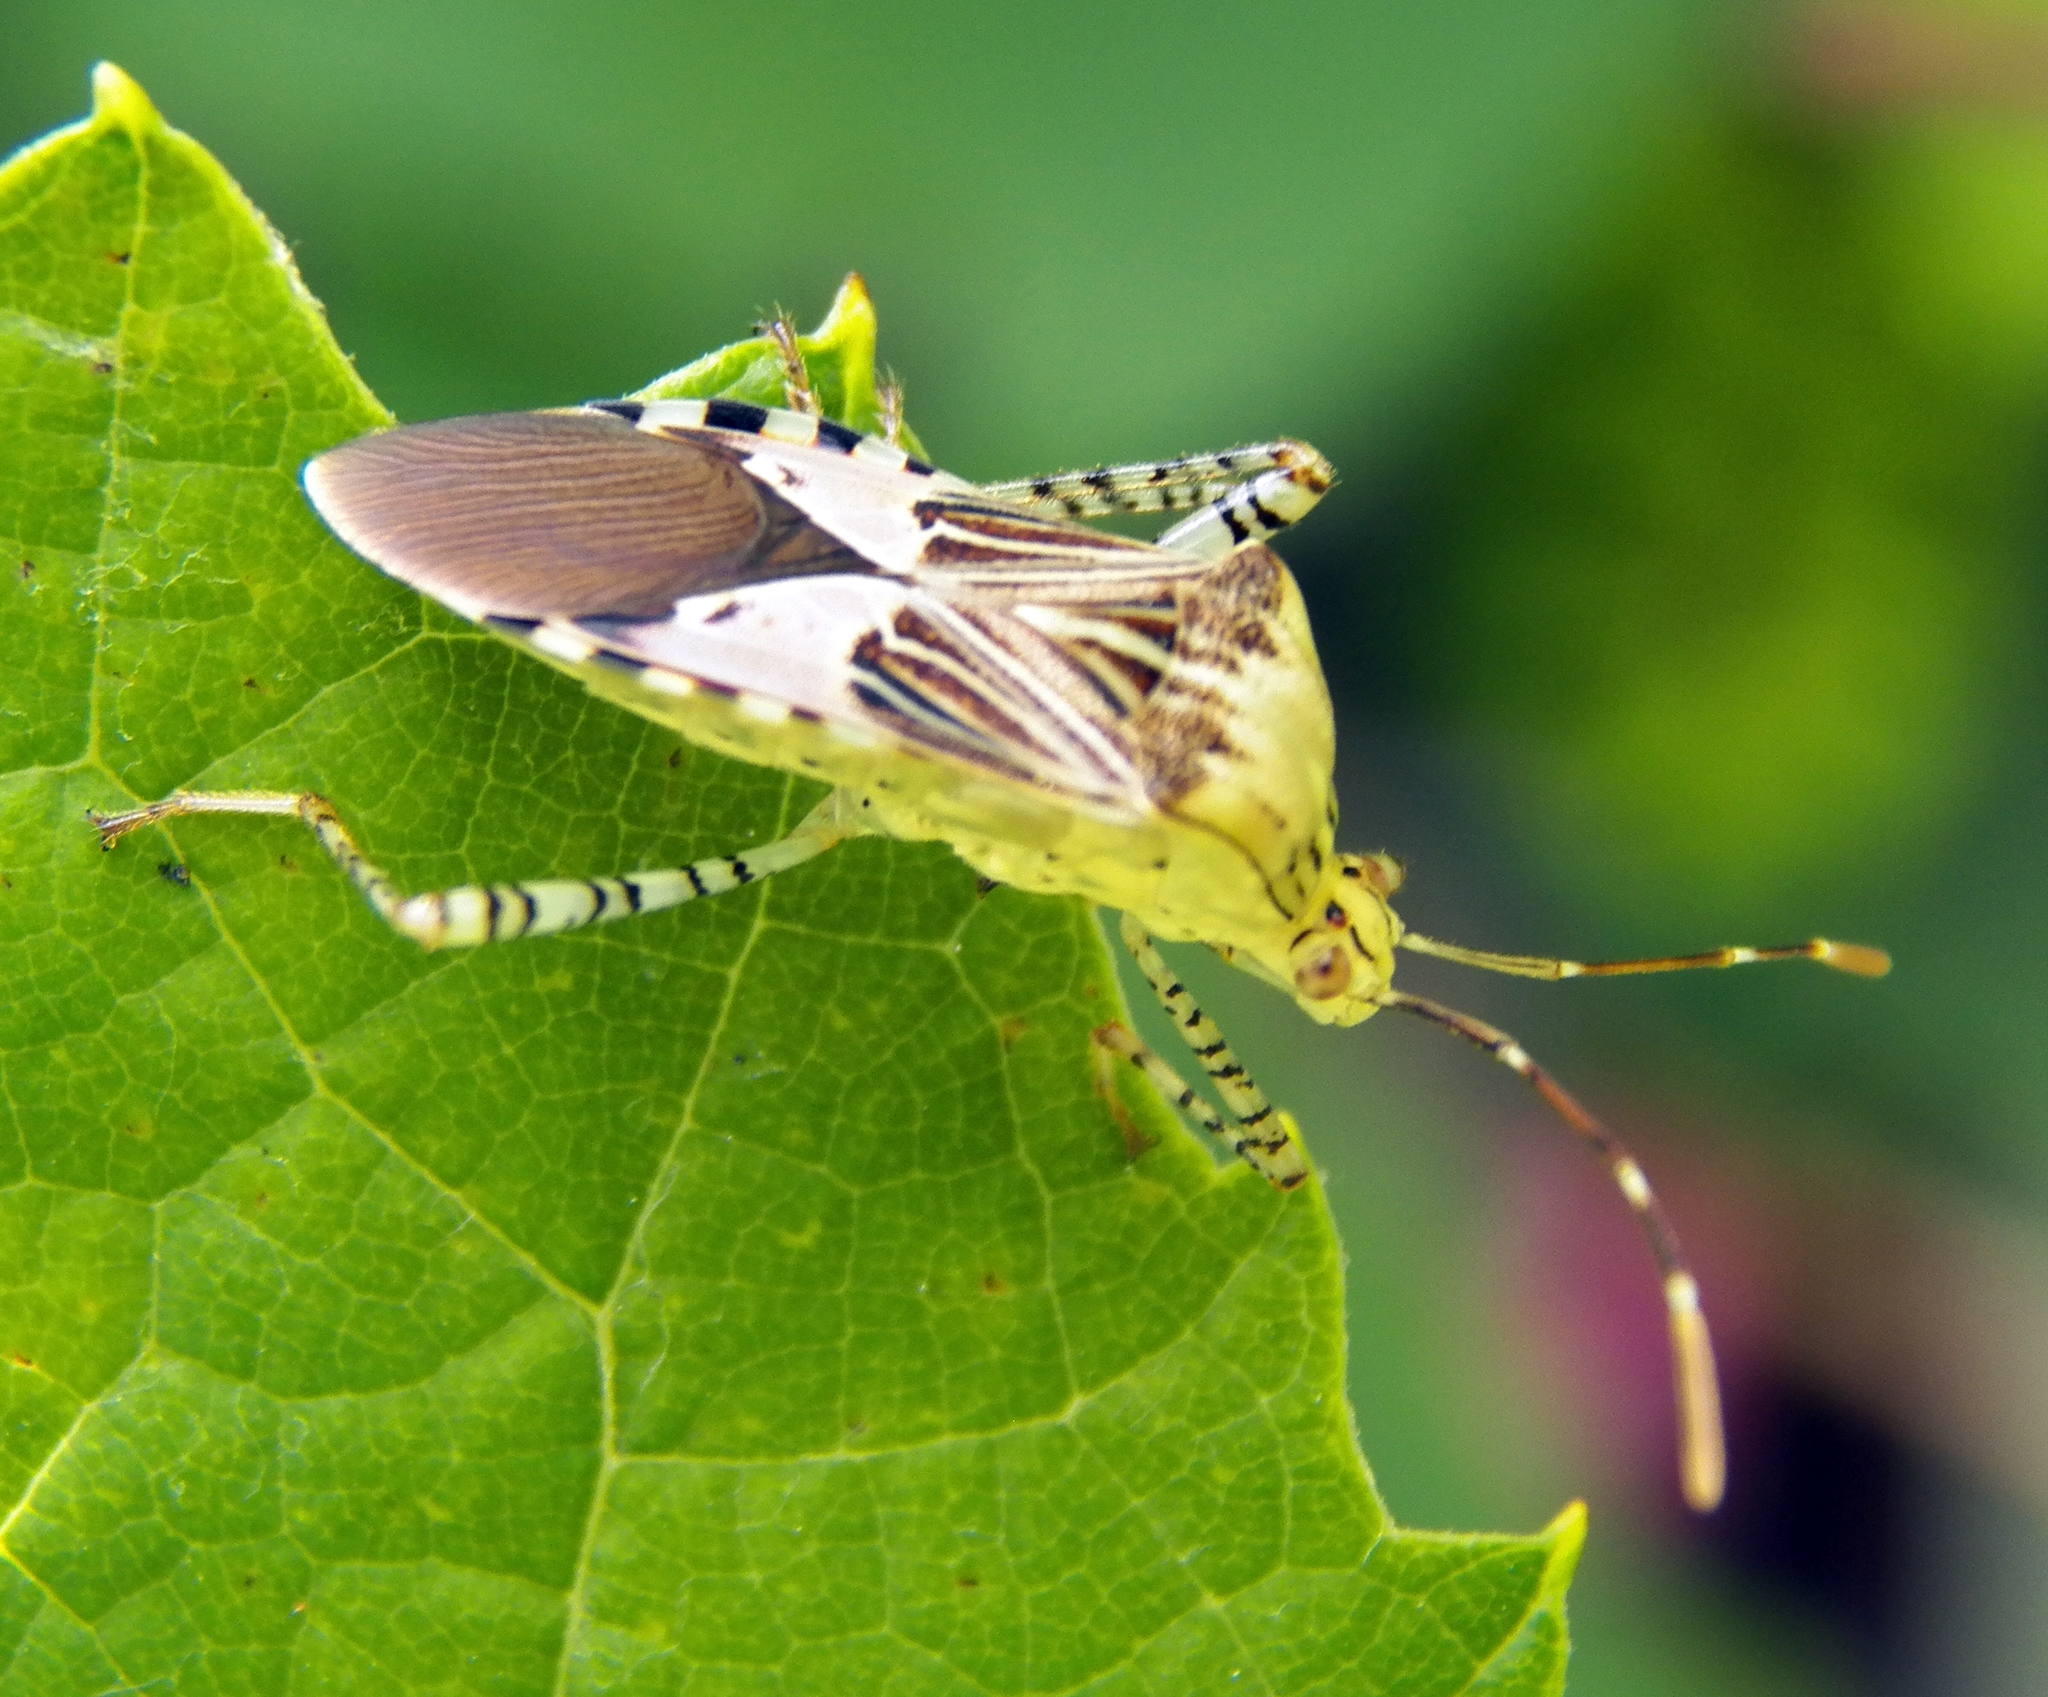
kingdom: Animalia
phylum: Arthropoda
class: Insecta
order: Hemiptera
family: Coreidae
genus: Hypselonotus
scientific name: Hypselonotus punctiventris
